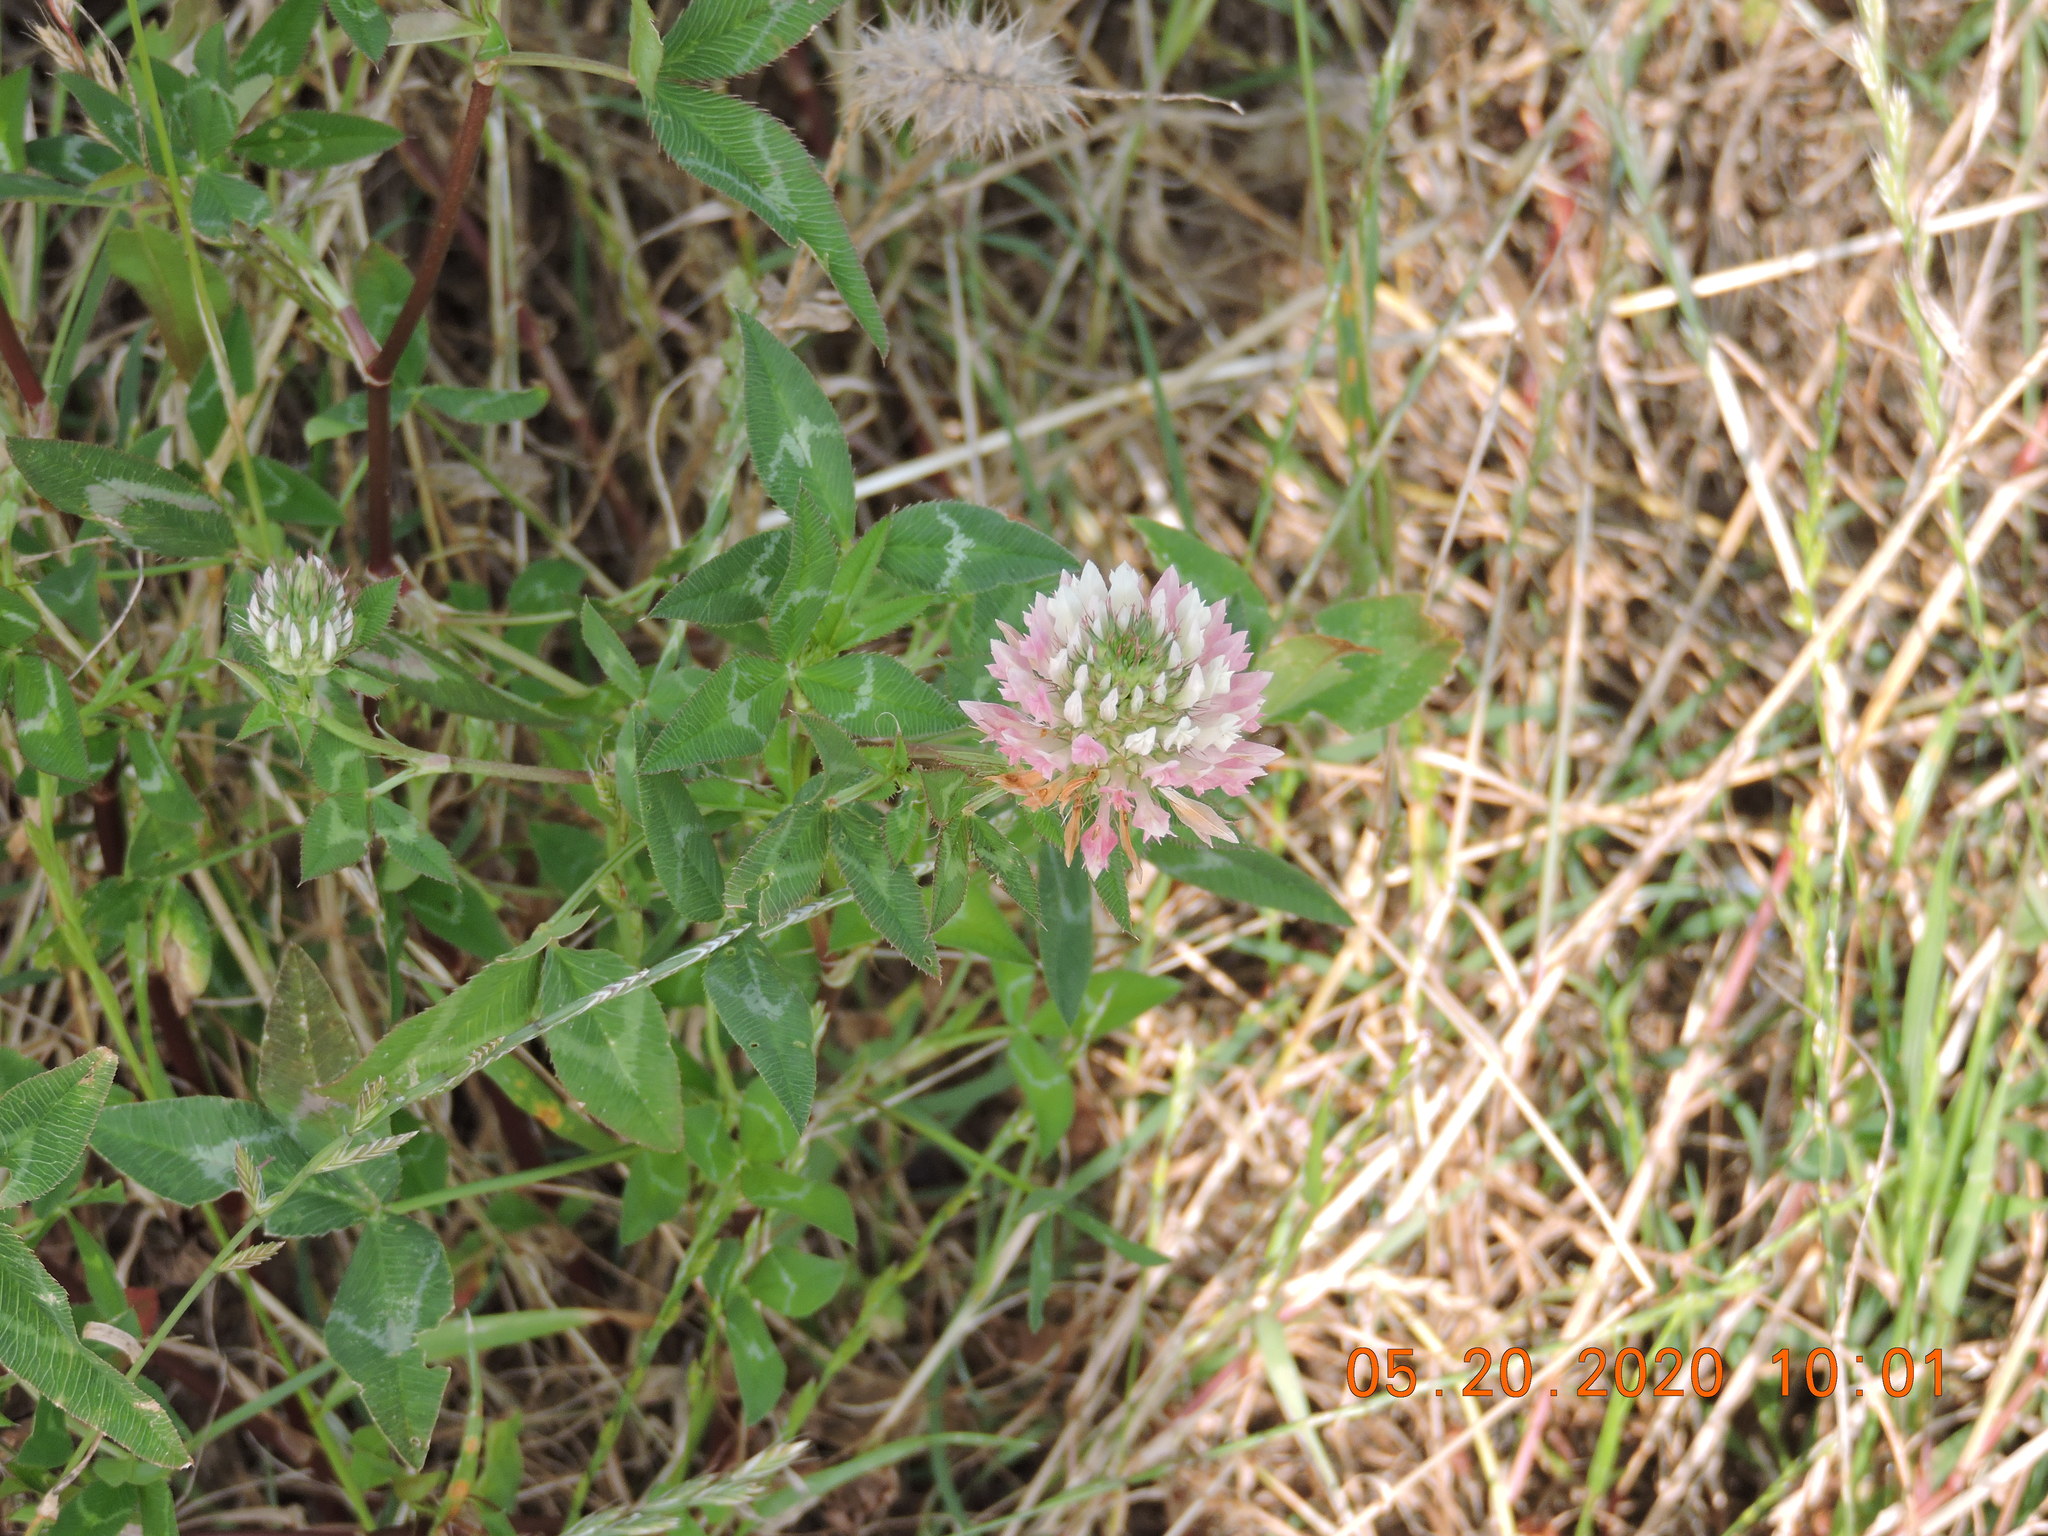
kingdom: Plantae
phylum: Tracheophyta
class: Magnoliopsida
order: Fabales
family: Fabaceae
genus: Trifolium
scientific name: Trifolium vesiculosum
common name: Arrowleaf clover
